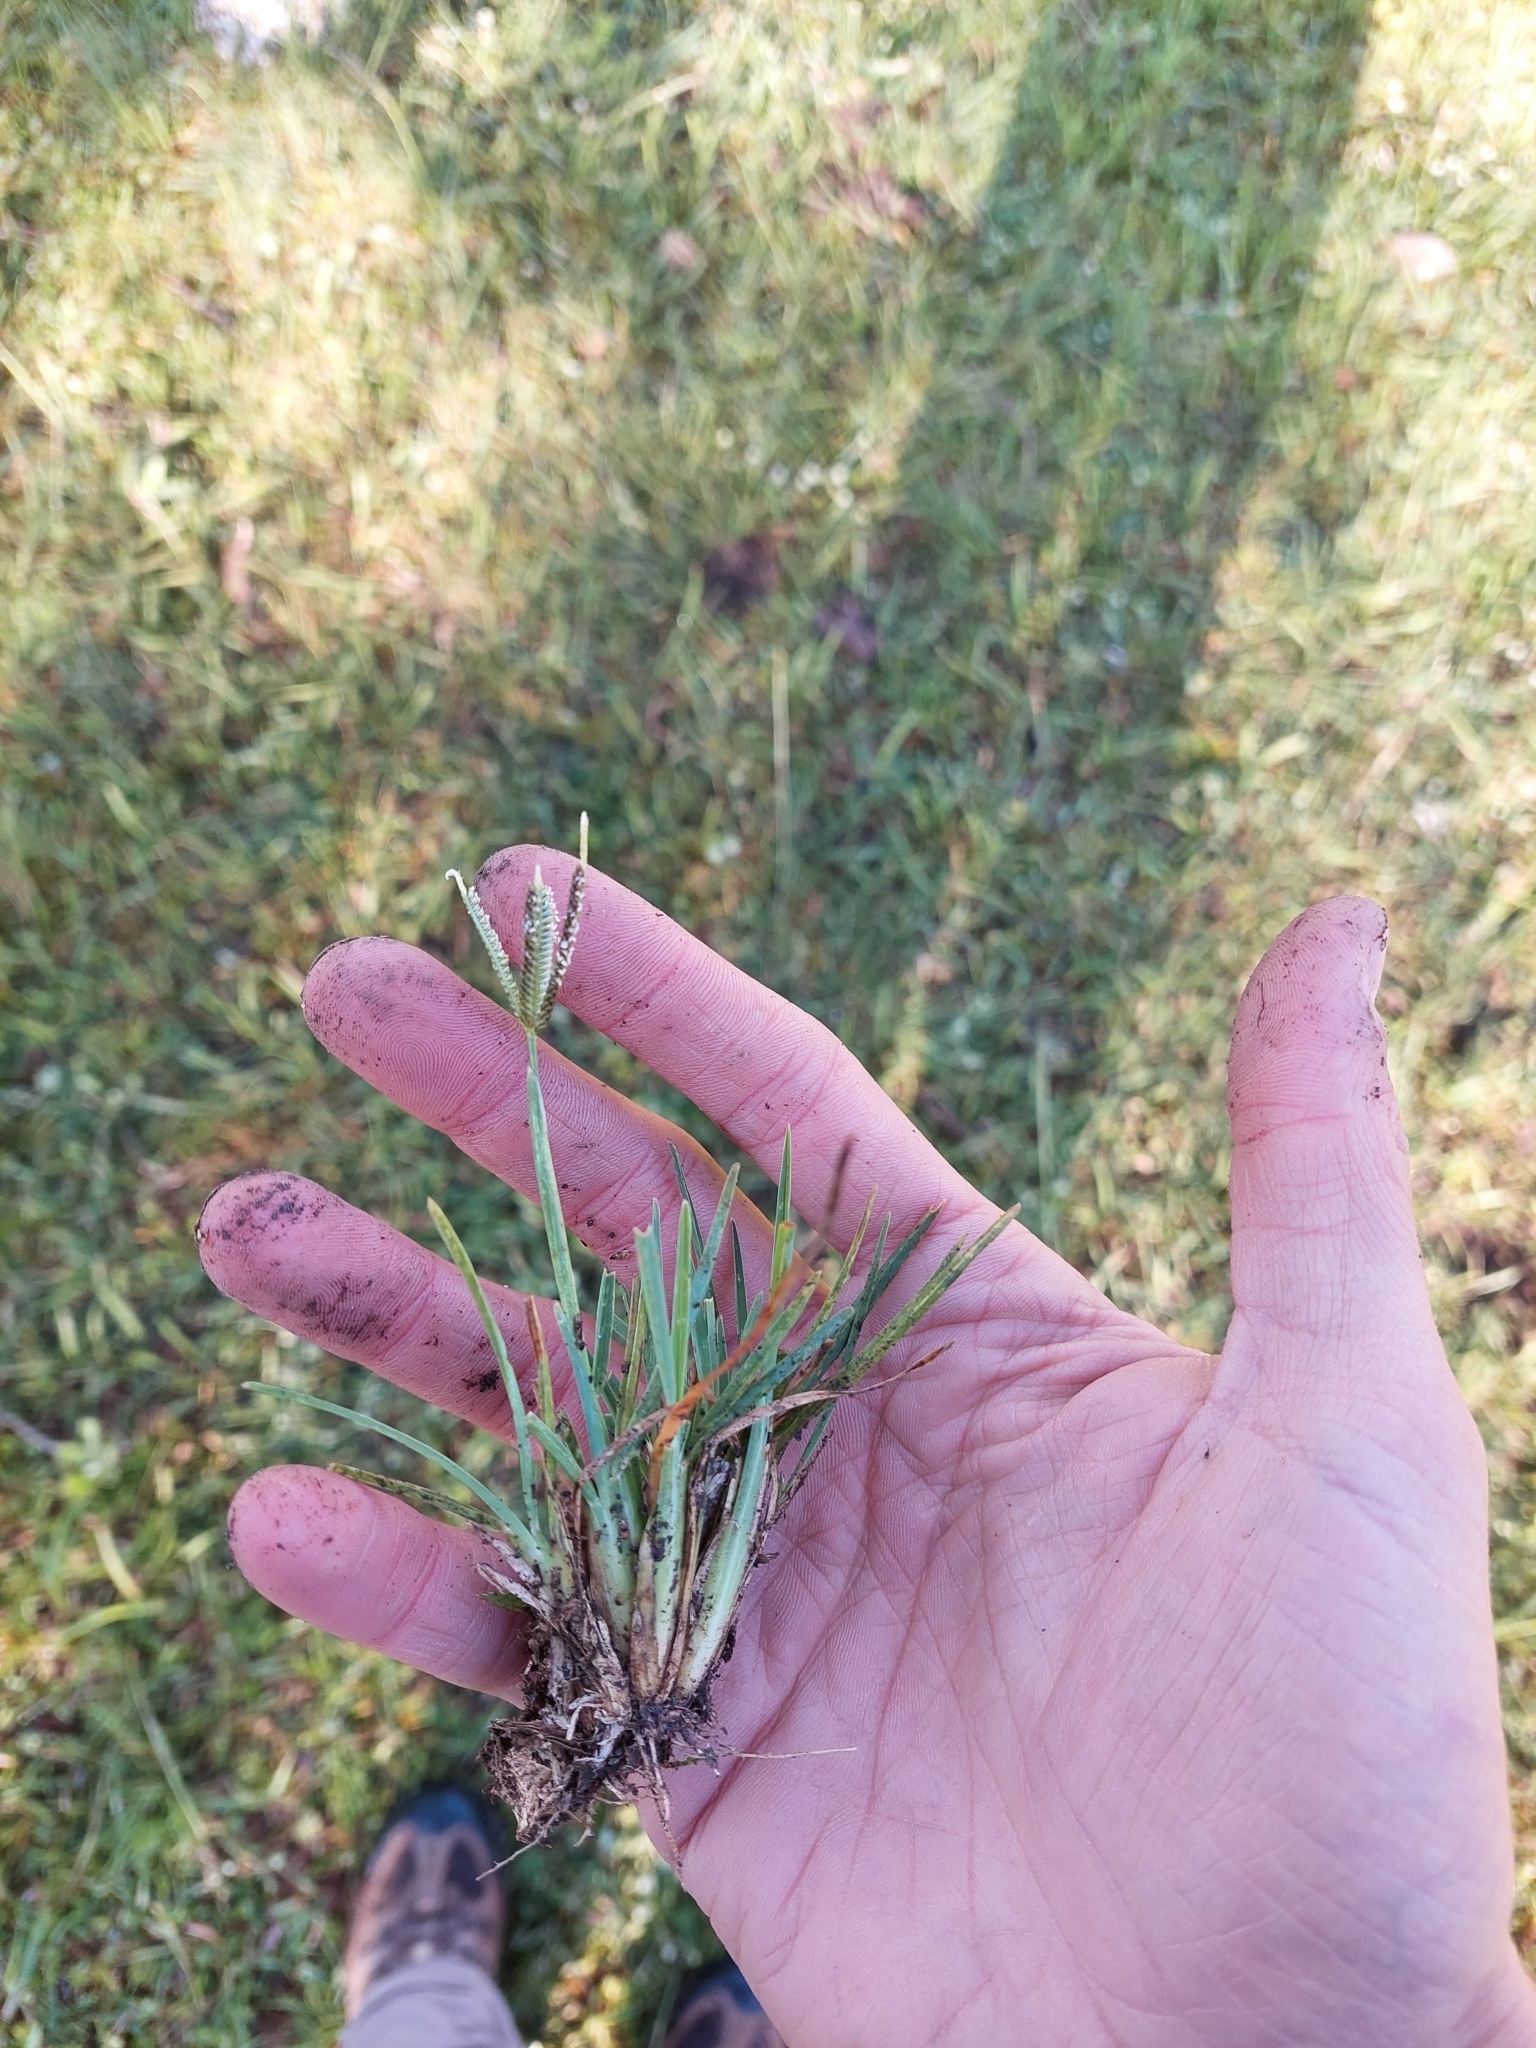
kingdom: Plantae
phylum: Tracheophyta
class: Liliopsida
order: Poales
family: Poaceae
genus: Eleusine
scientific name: Eleusine tristachya
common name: American yard-grass
